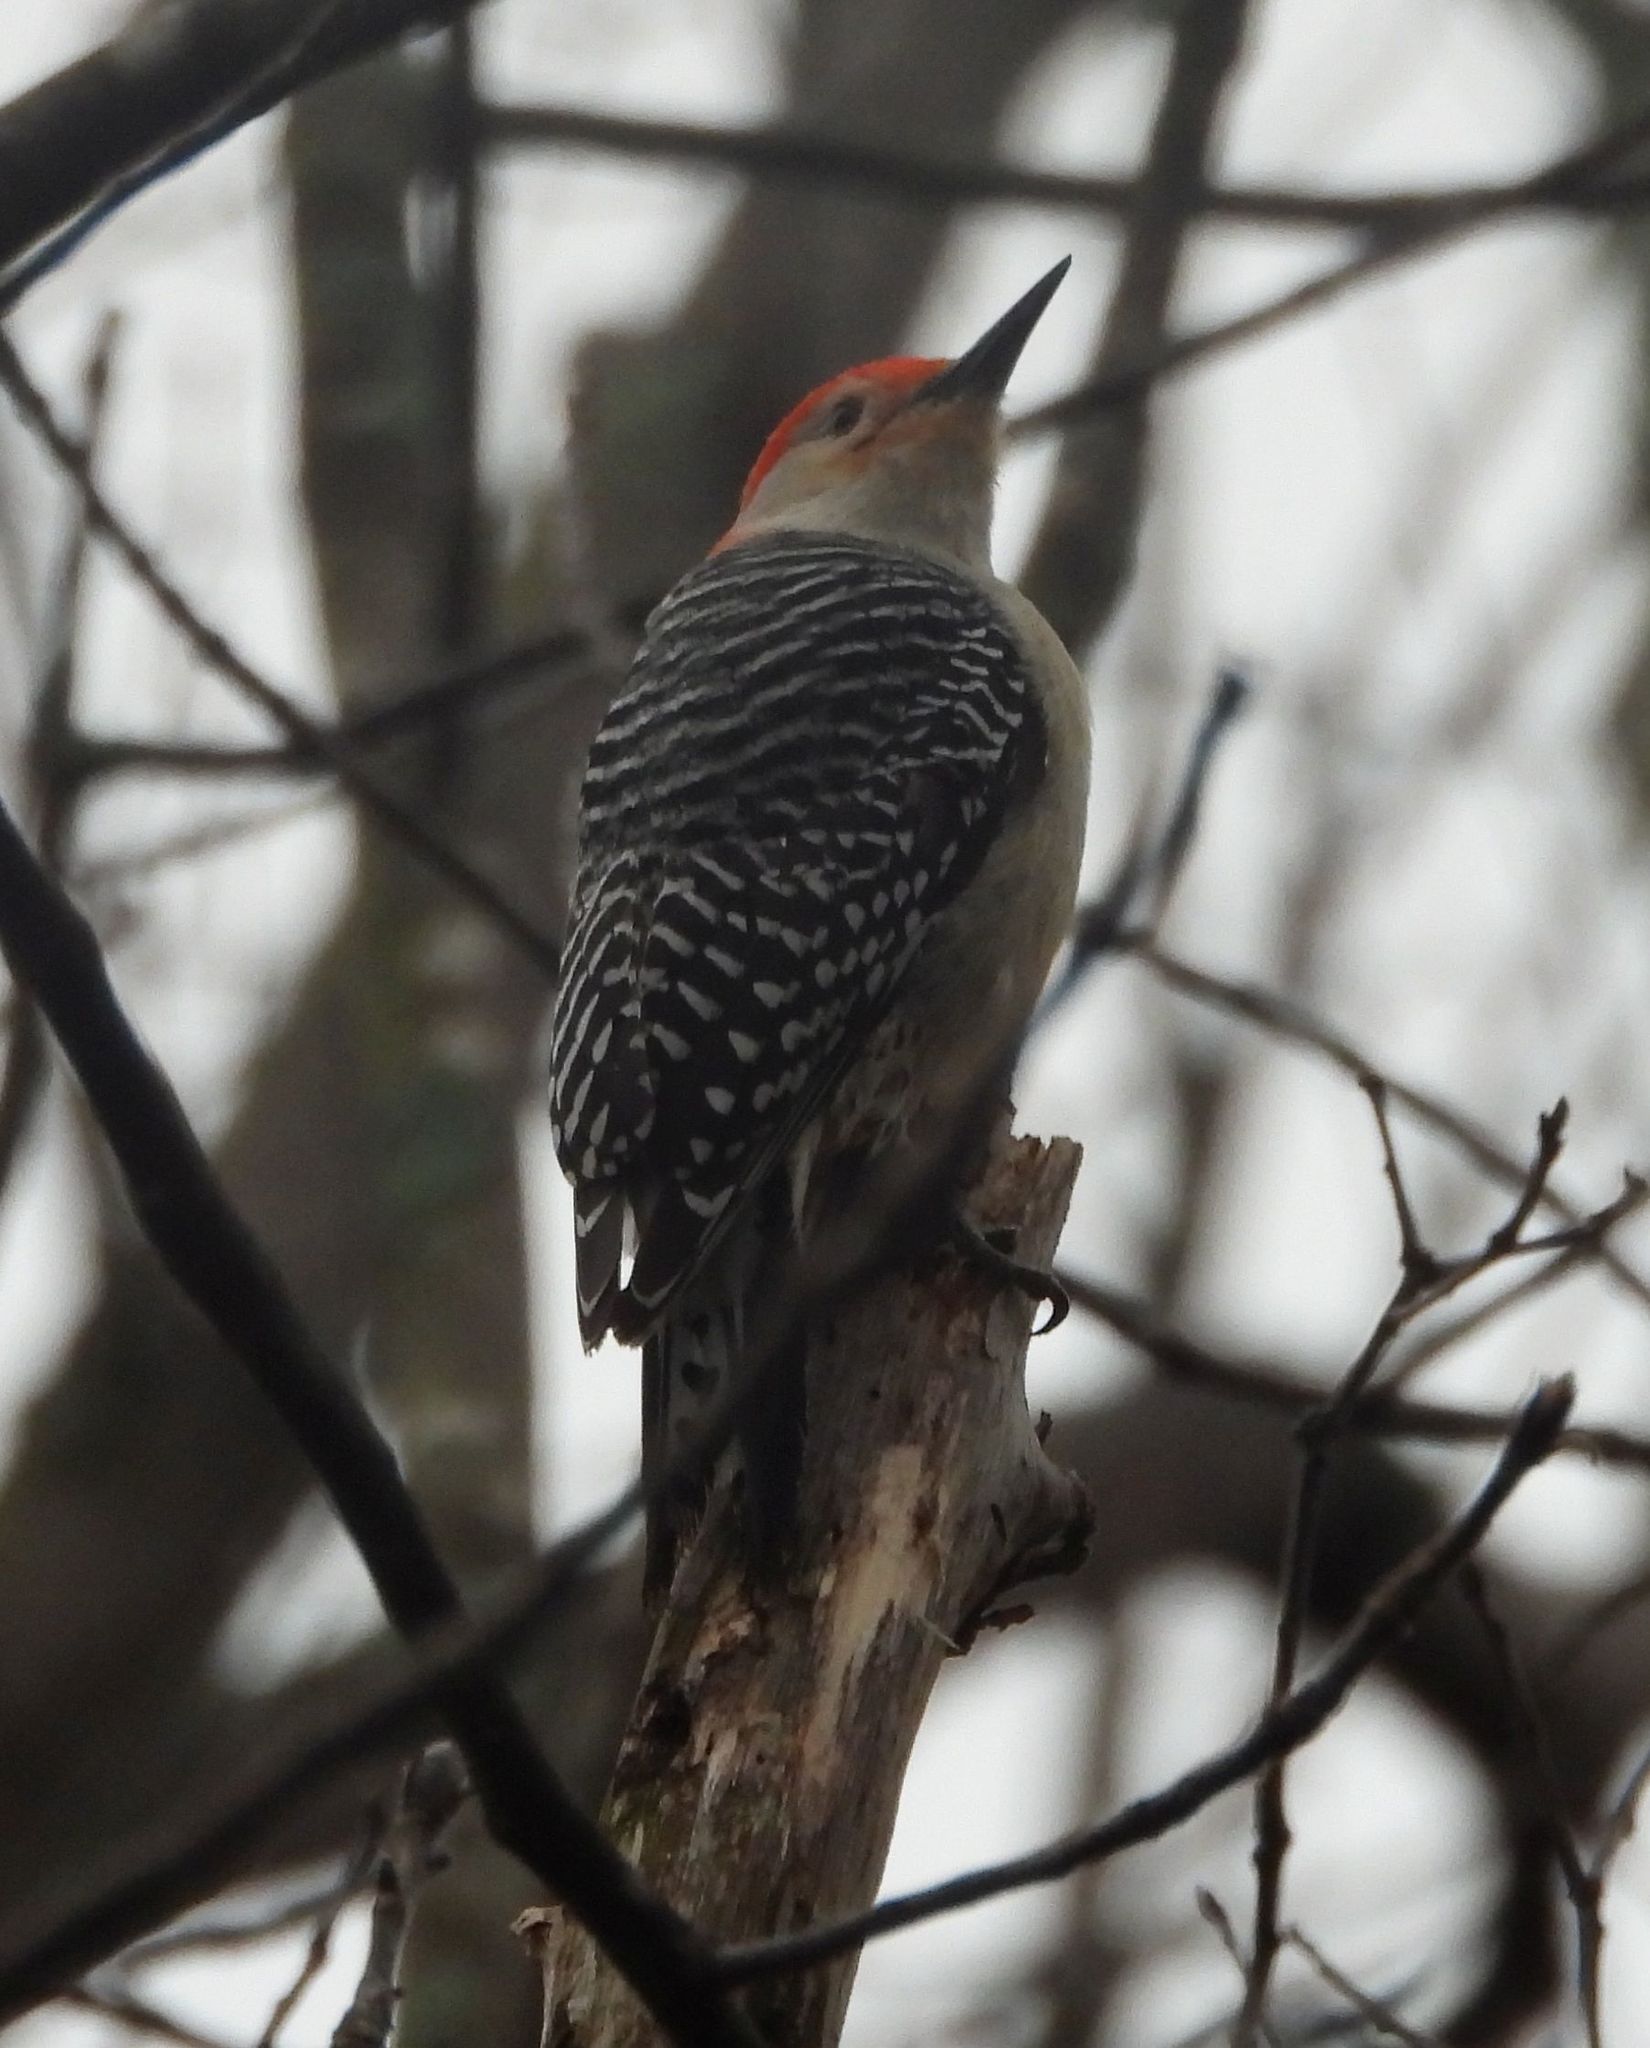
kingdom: Animalia
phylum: Chordata
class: Aves
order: Piciformes
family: Picidae
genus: Melanerpes
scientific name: Melanerpes carolinus
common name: Red-bellied woodpecker
